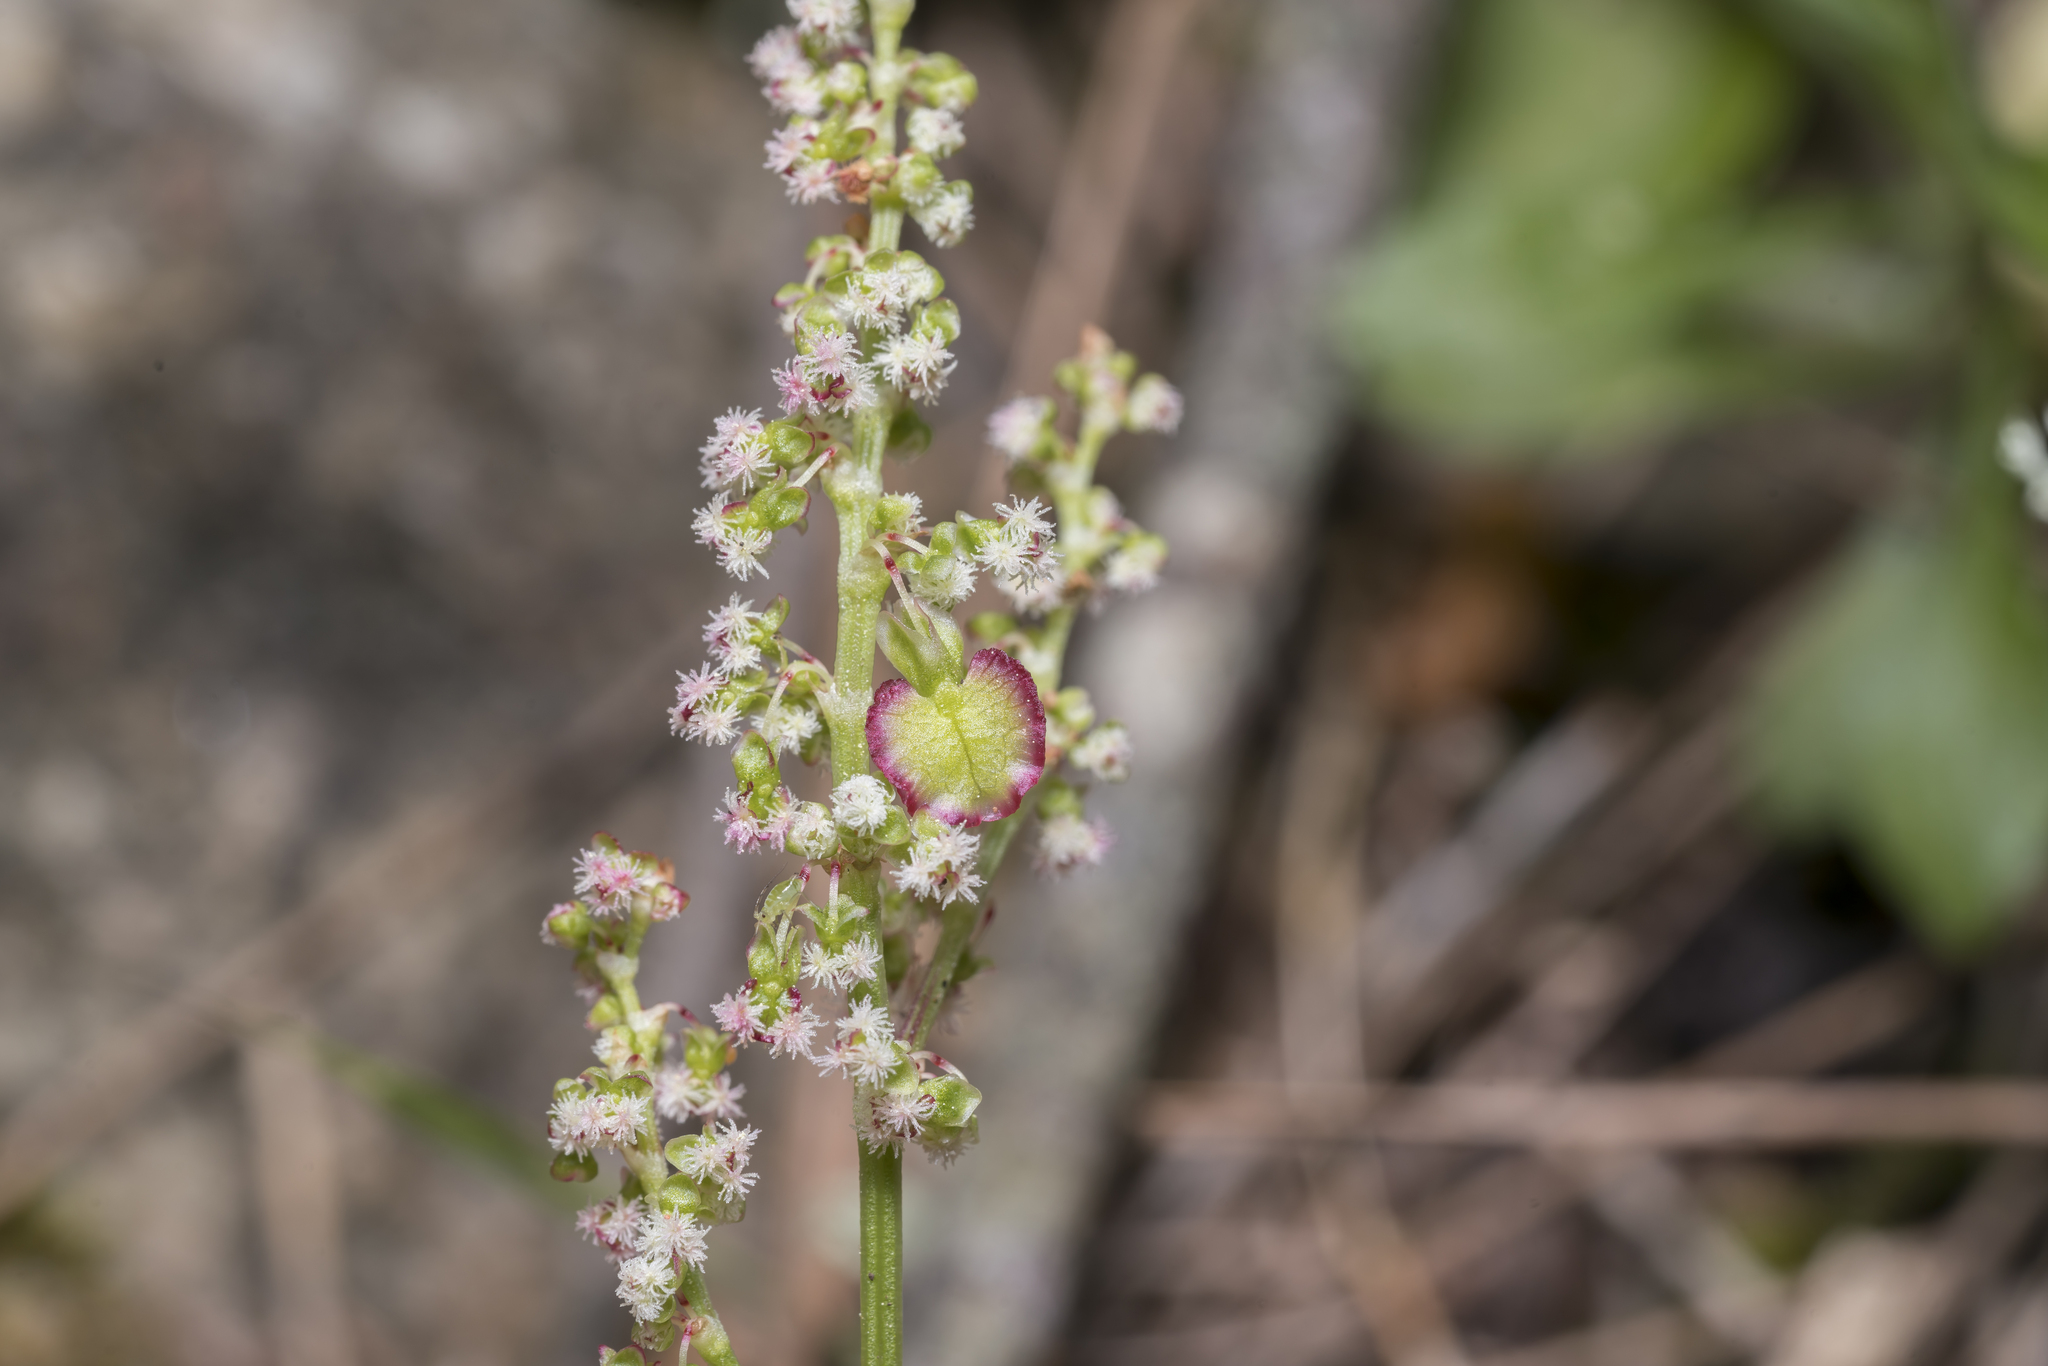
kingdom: Plantae
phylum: Tracheophyta
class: Magnoliopsida
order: Caryophyllales
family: Polygonaceae
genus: Rumex
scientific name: Rumex tuberosus
